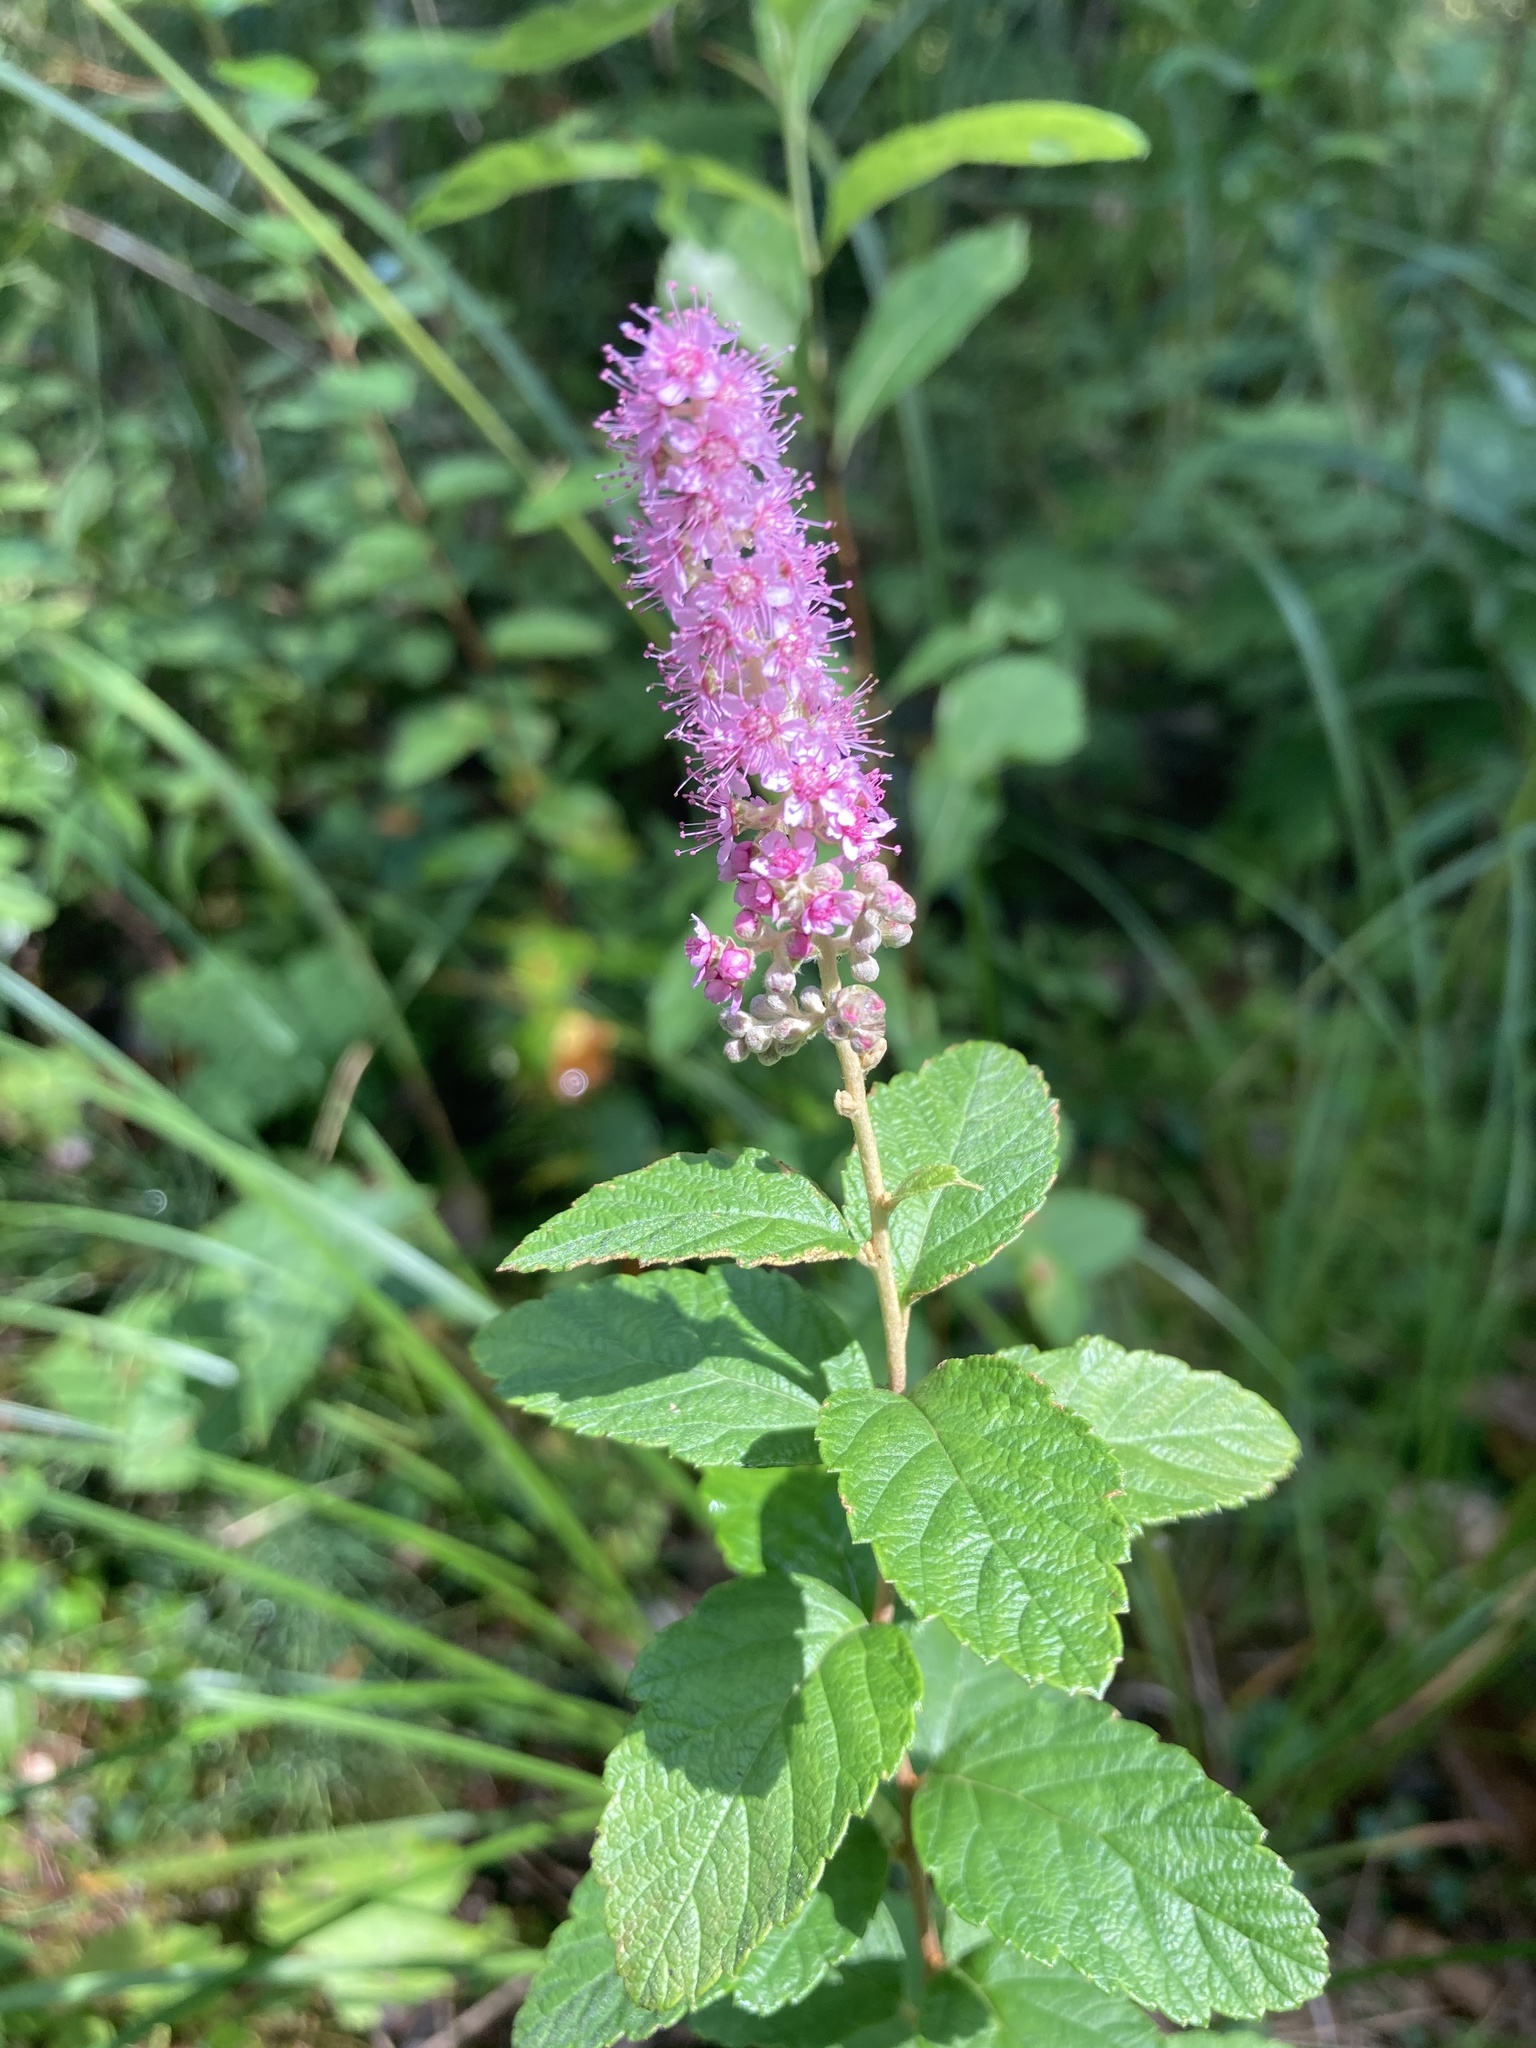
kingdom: Plantae
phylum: Tracheophyta
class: Magnoliopsida
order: Rosales
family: Rosaceae
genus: Spiraea
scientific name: Spiraea tomentosa
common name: Hardhack
